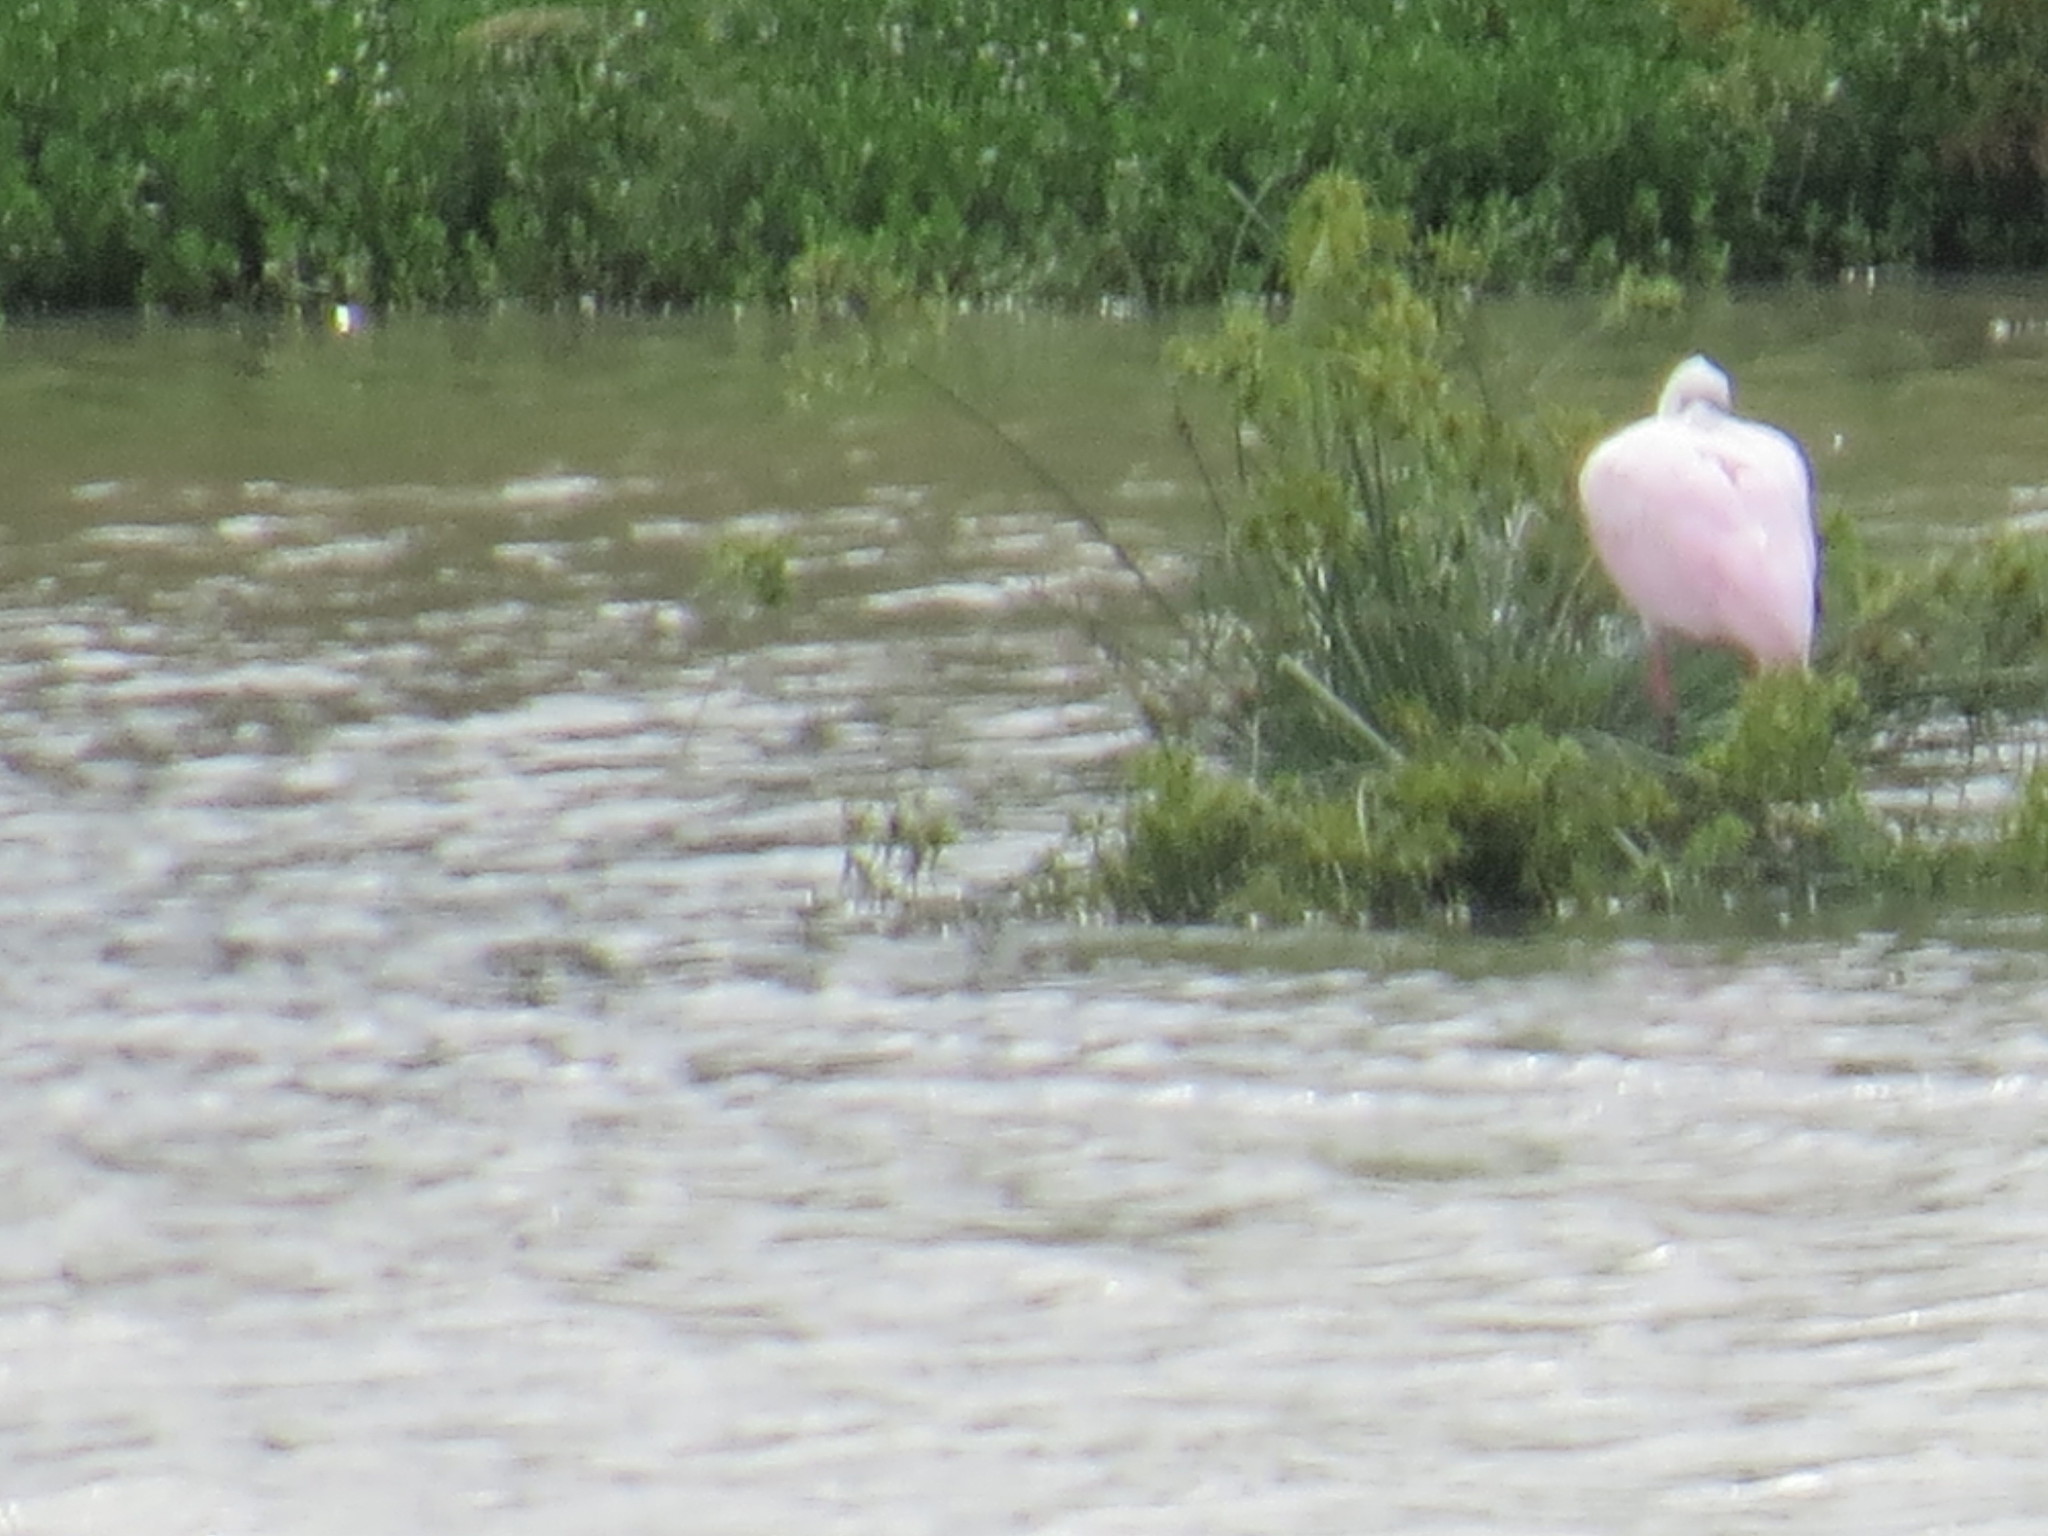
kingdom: Animalia
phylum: Chordata
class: Aves
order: Pelecaniformes
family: Threskiornithidae
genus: Platalea
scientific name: Platalea ajaja
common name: Roseate spoonbill
